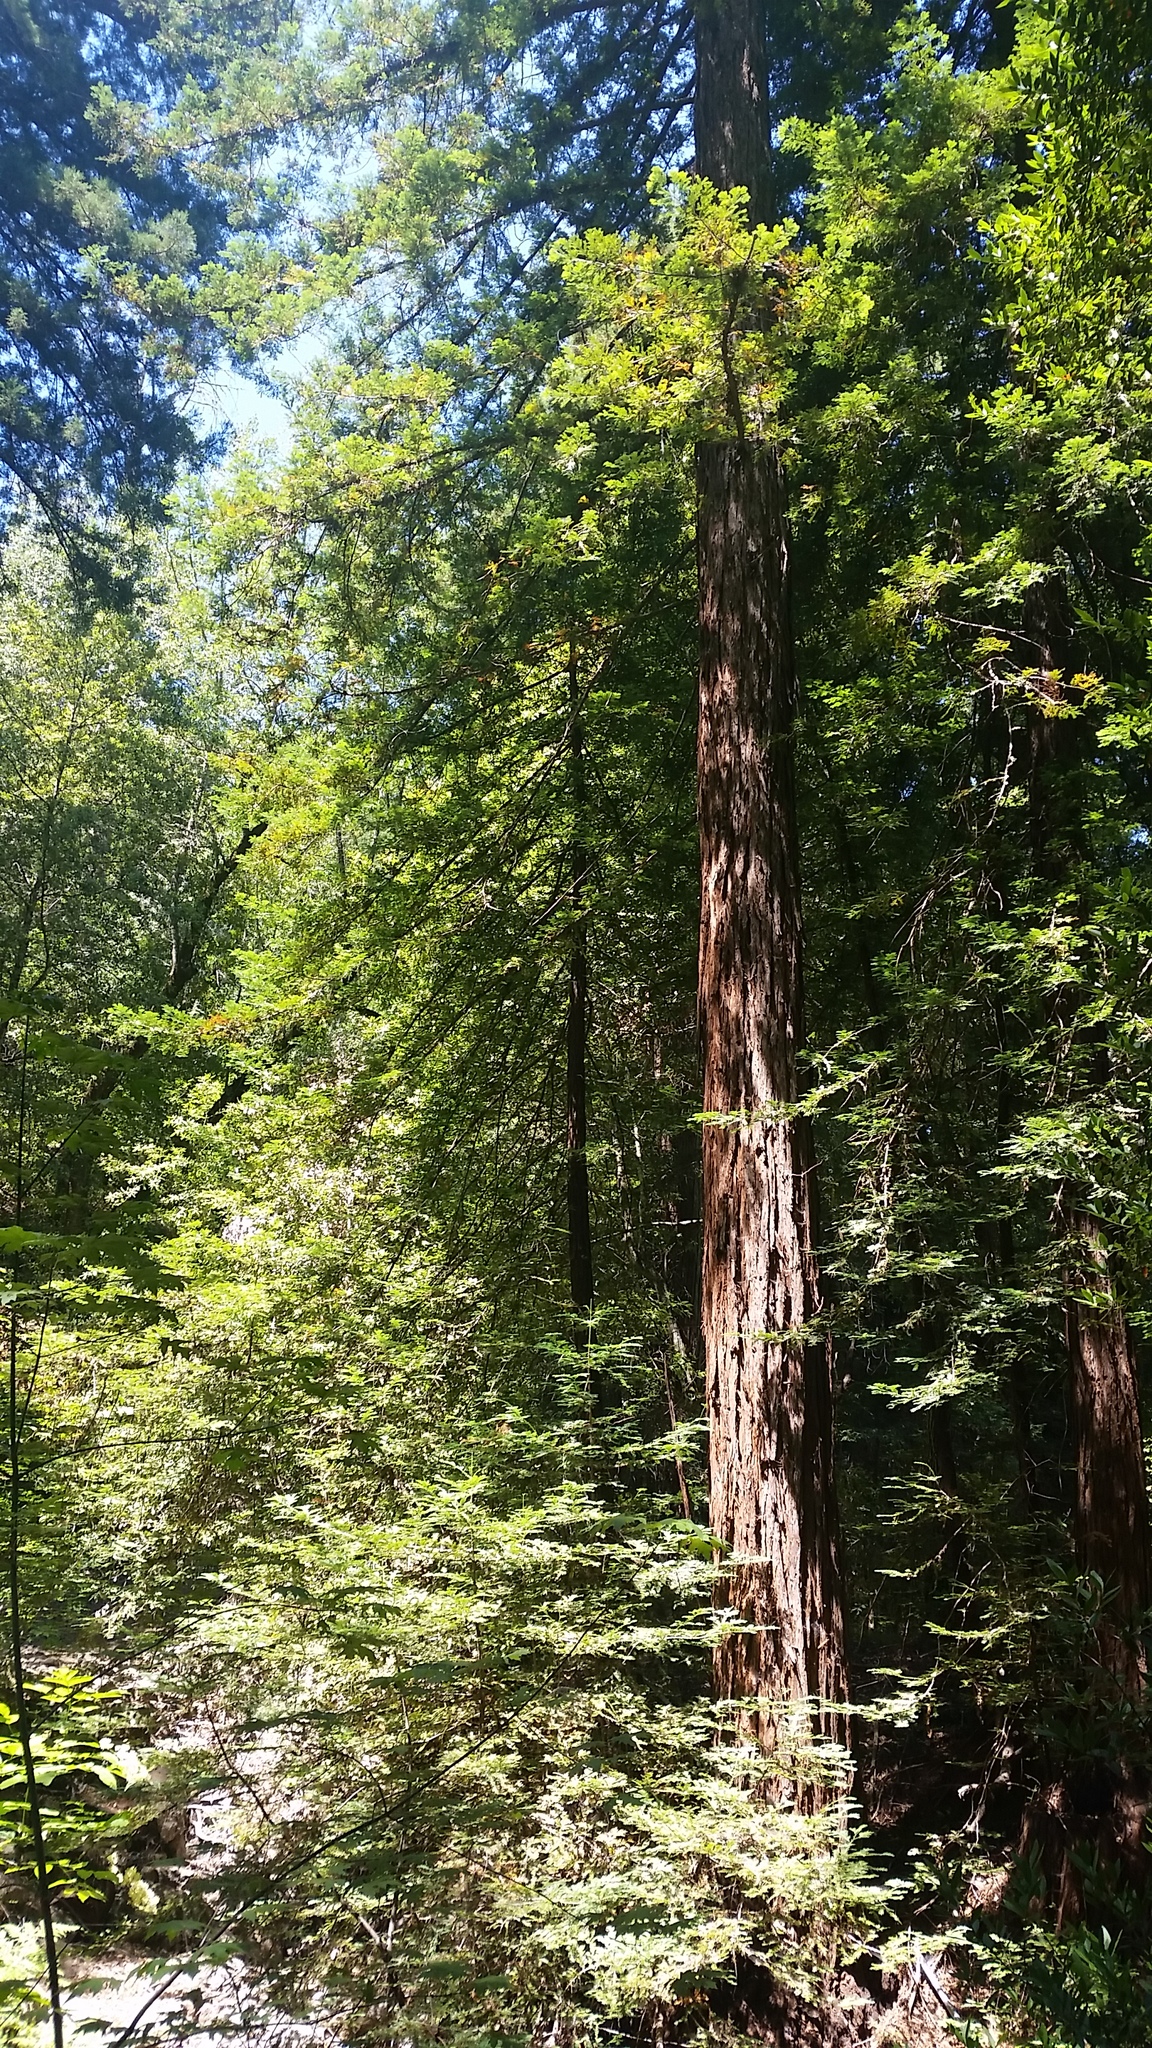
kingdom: Plantae
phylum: Tracheophyta
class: Pinopsida
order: Pinales
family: Cupressaceae
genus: Sequoia
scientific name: Sequoia sempervirens
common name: Coast redwood
